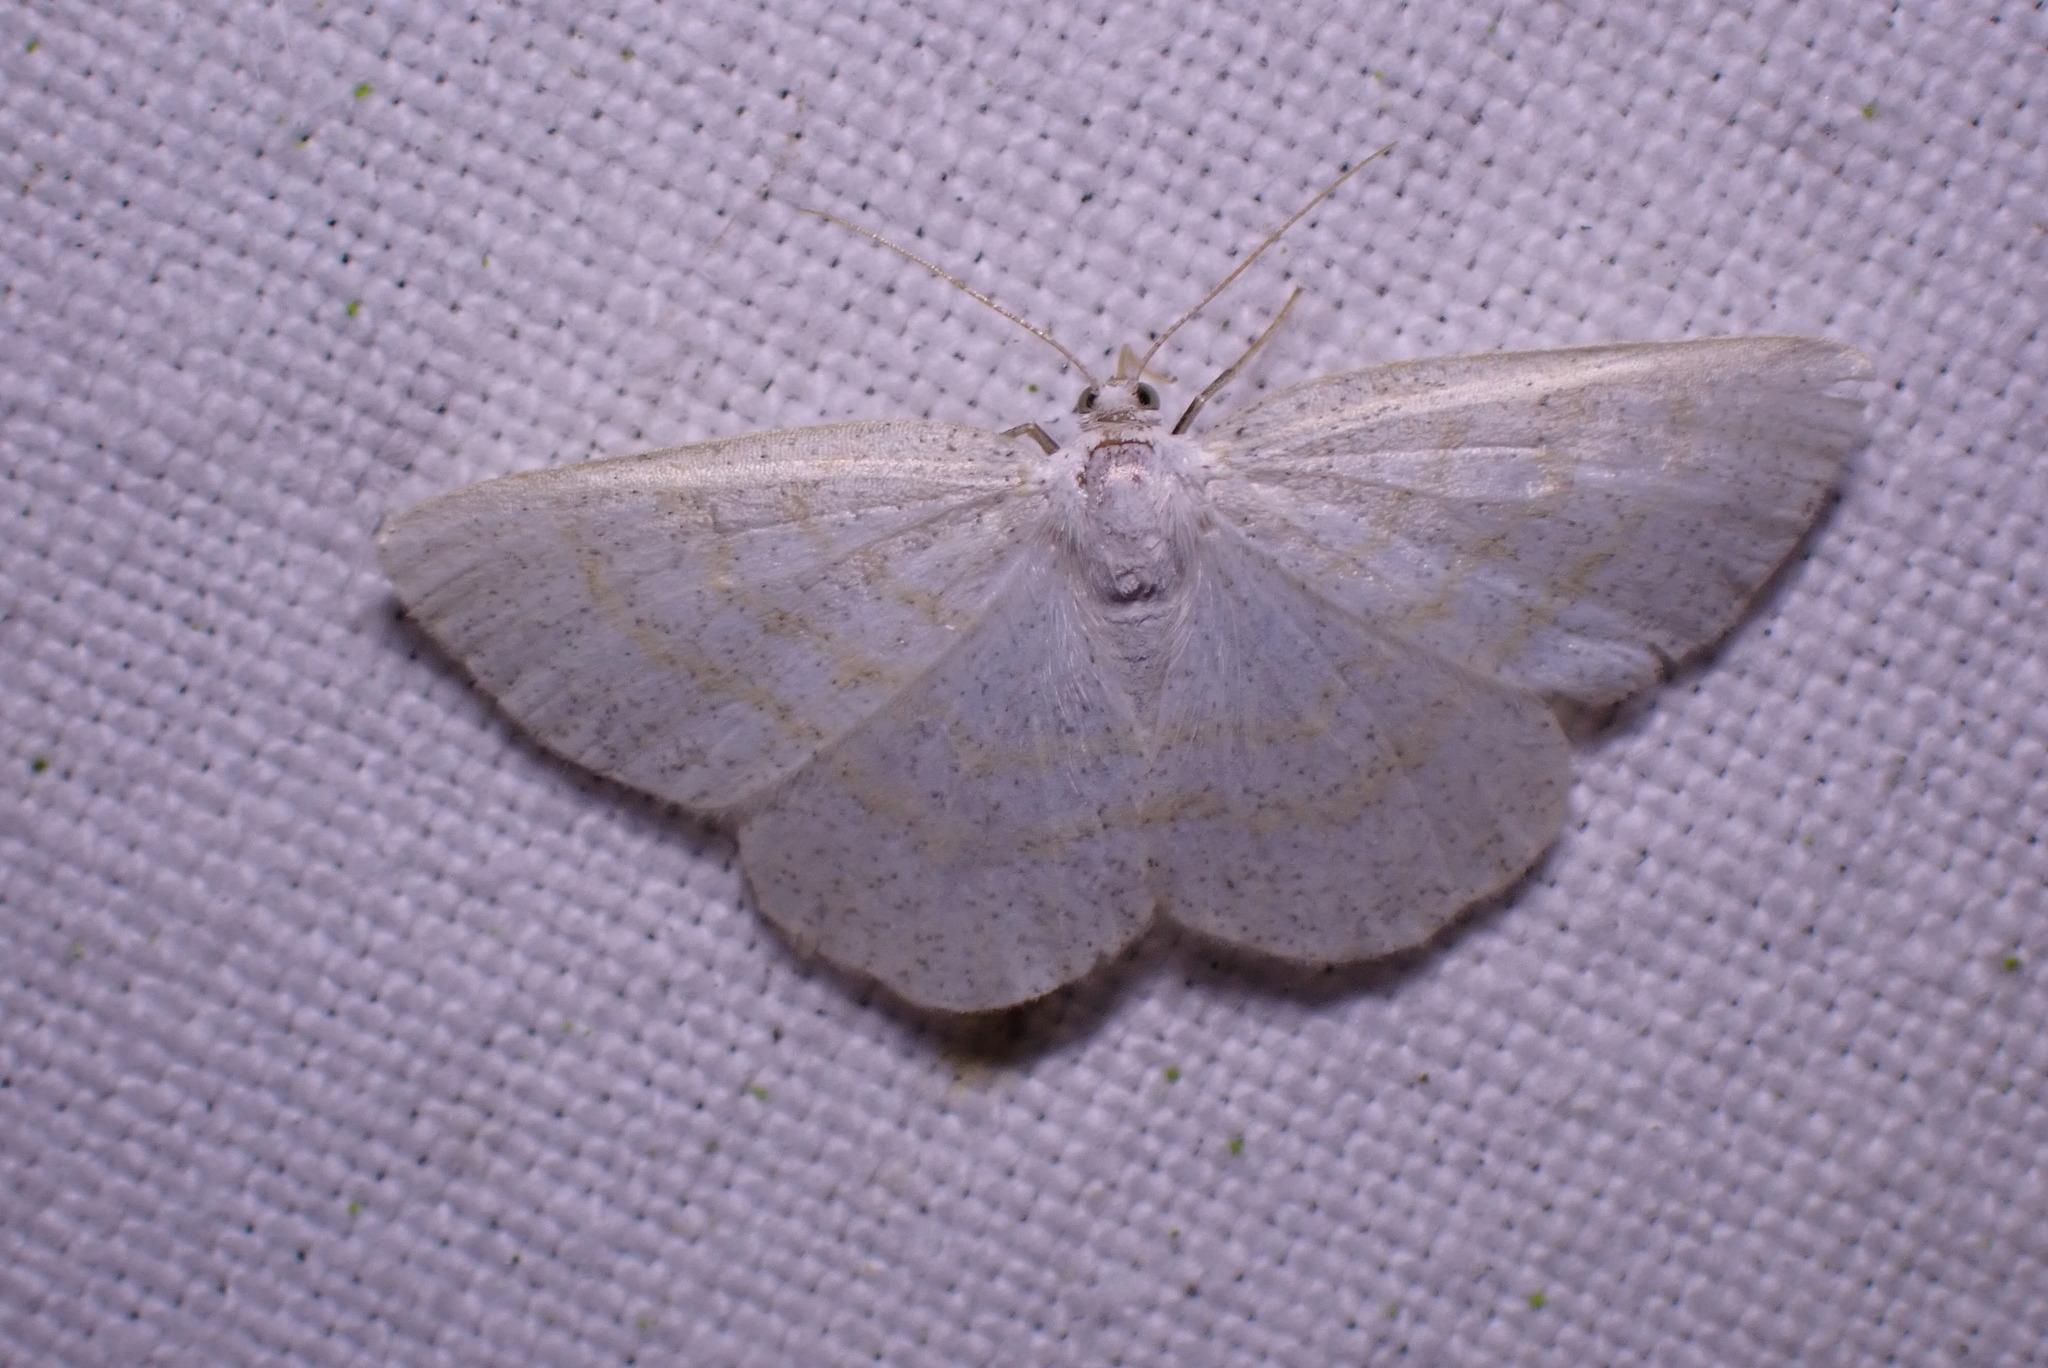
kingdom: Animalia
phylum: Arthropoda
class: Insecta
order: Lepidoptera
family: Geometridae
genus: Cabera
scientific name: Cabera exanthemata
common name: Common wave
